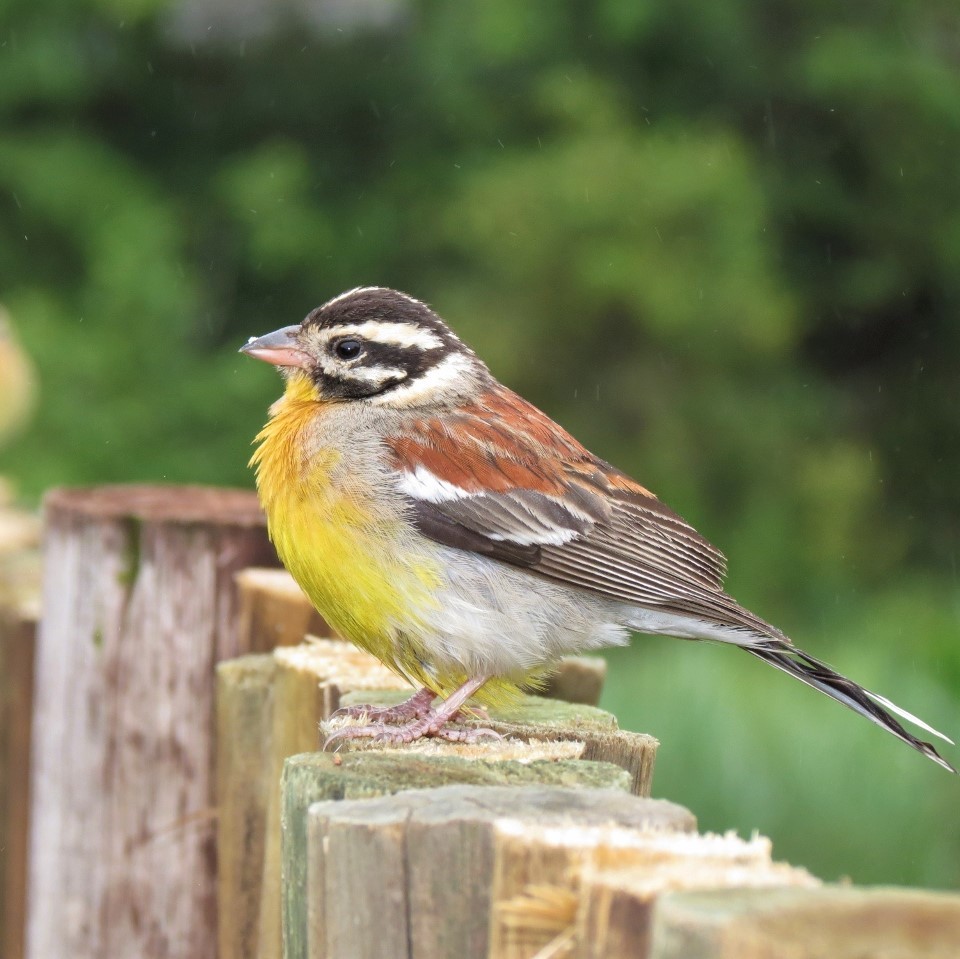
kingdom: Animalia
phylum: Chordata
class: Aves
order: Passeriformes
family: Emberizidae
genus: Emberiza
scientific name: Emberiza flaviventris
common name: Golden-breasted bunting
